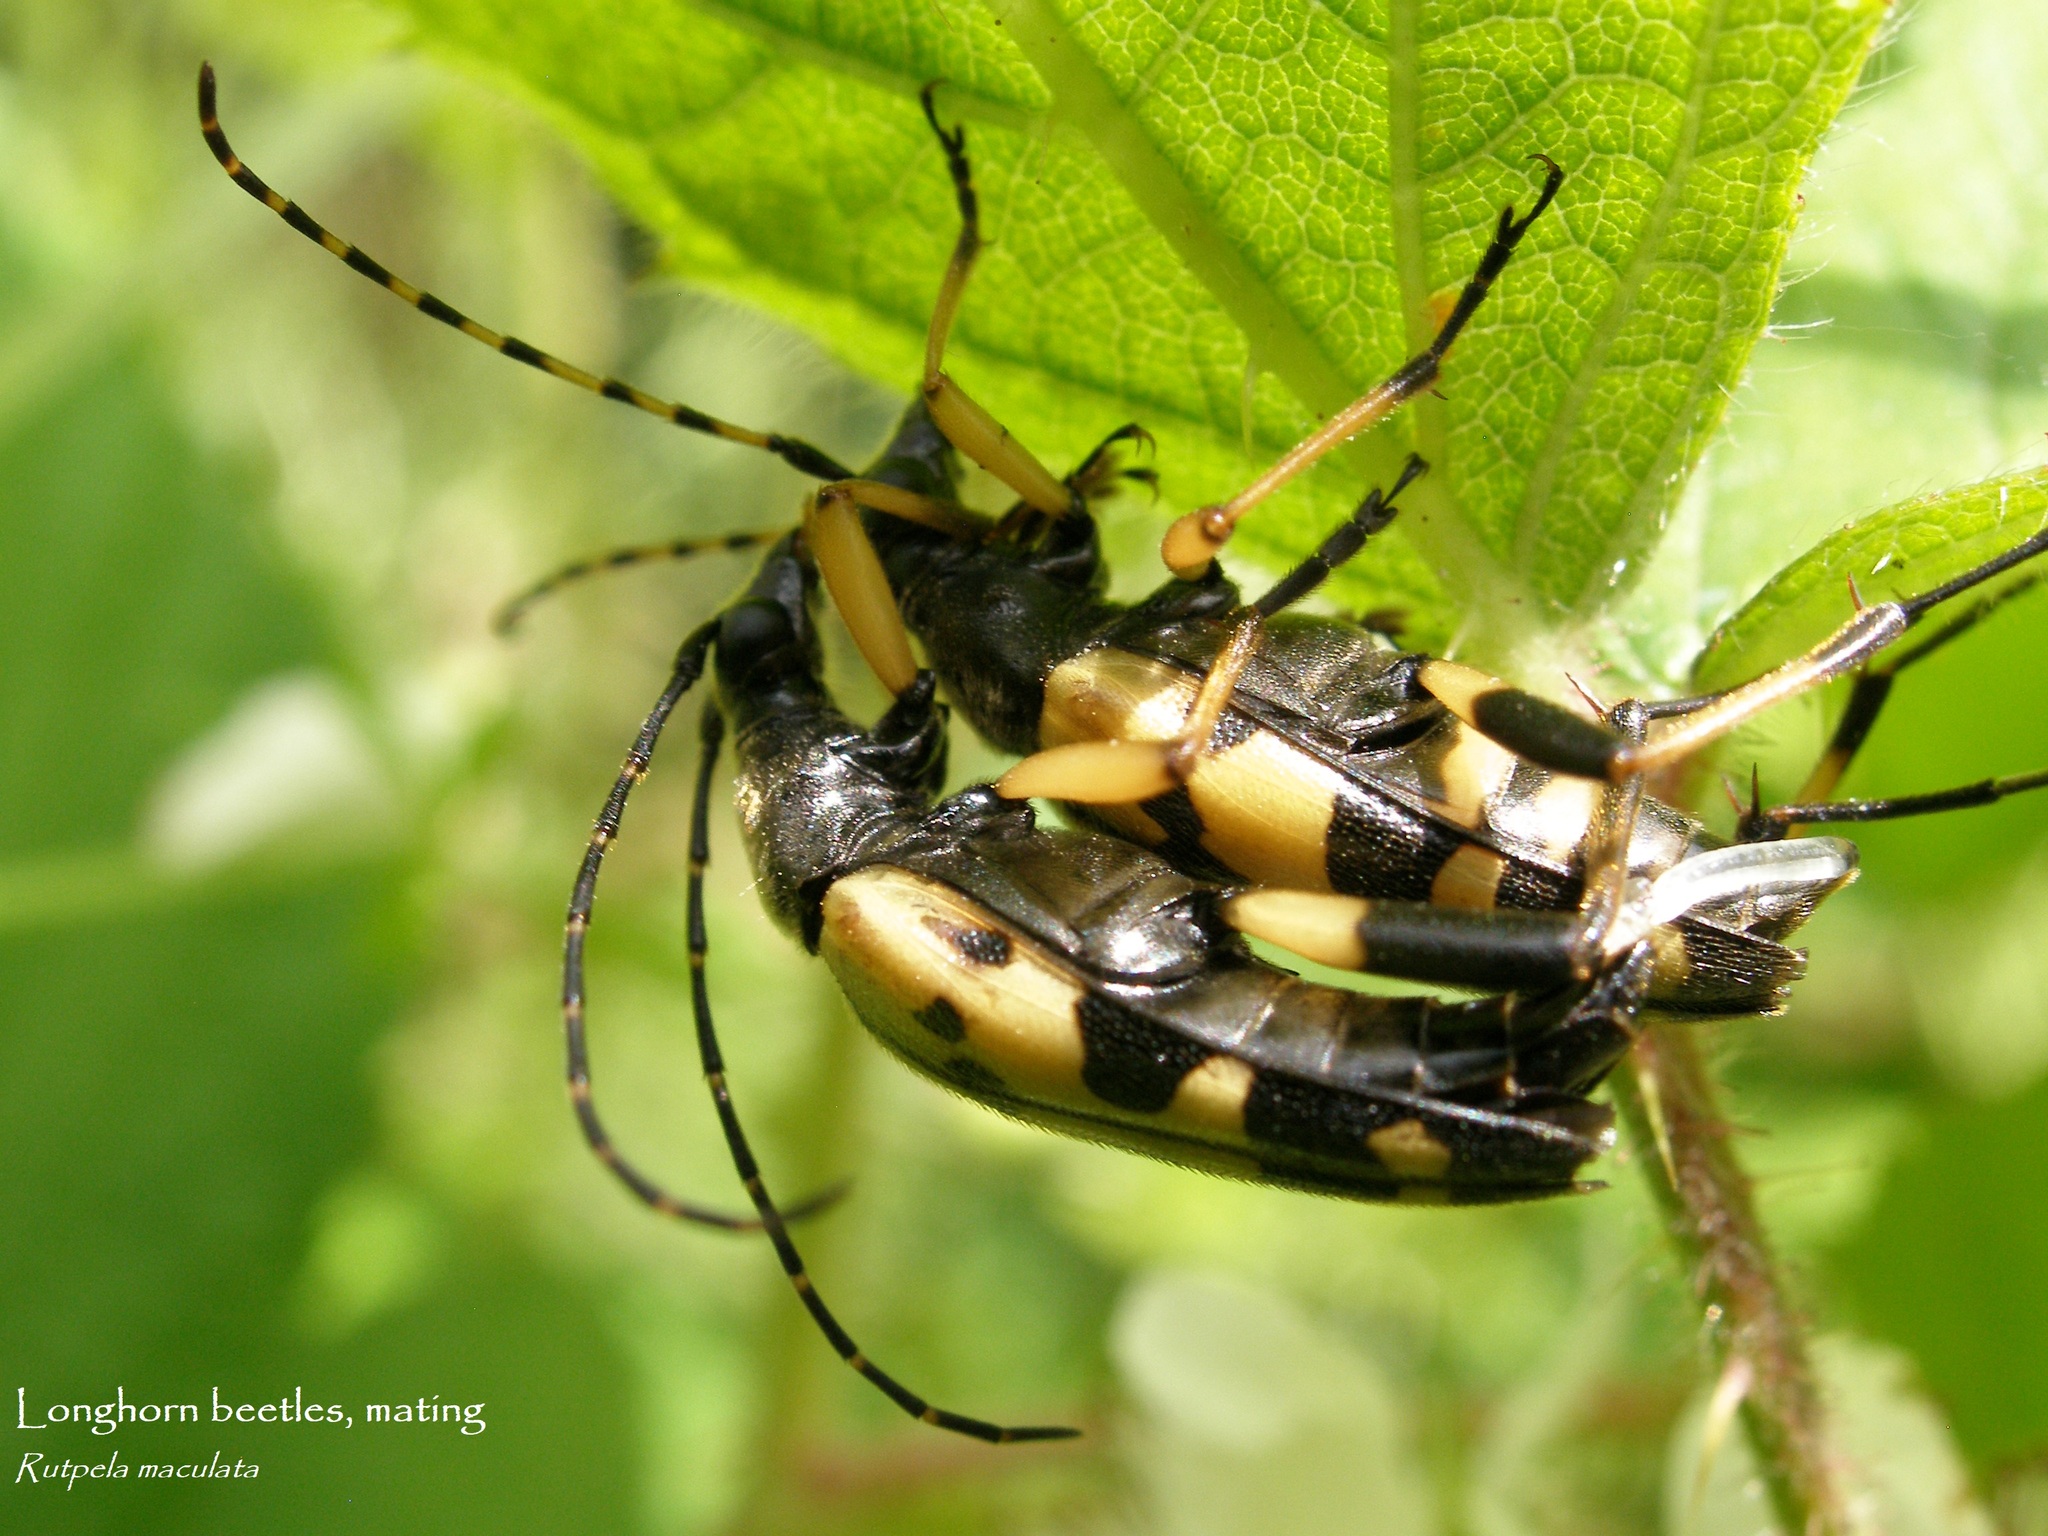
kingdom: Animalia
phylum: Arthropoda
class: Insecta
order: Coleoptera
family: Cerambycidae
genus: Rutpela
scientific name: Rutpela maculata
